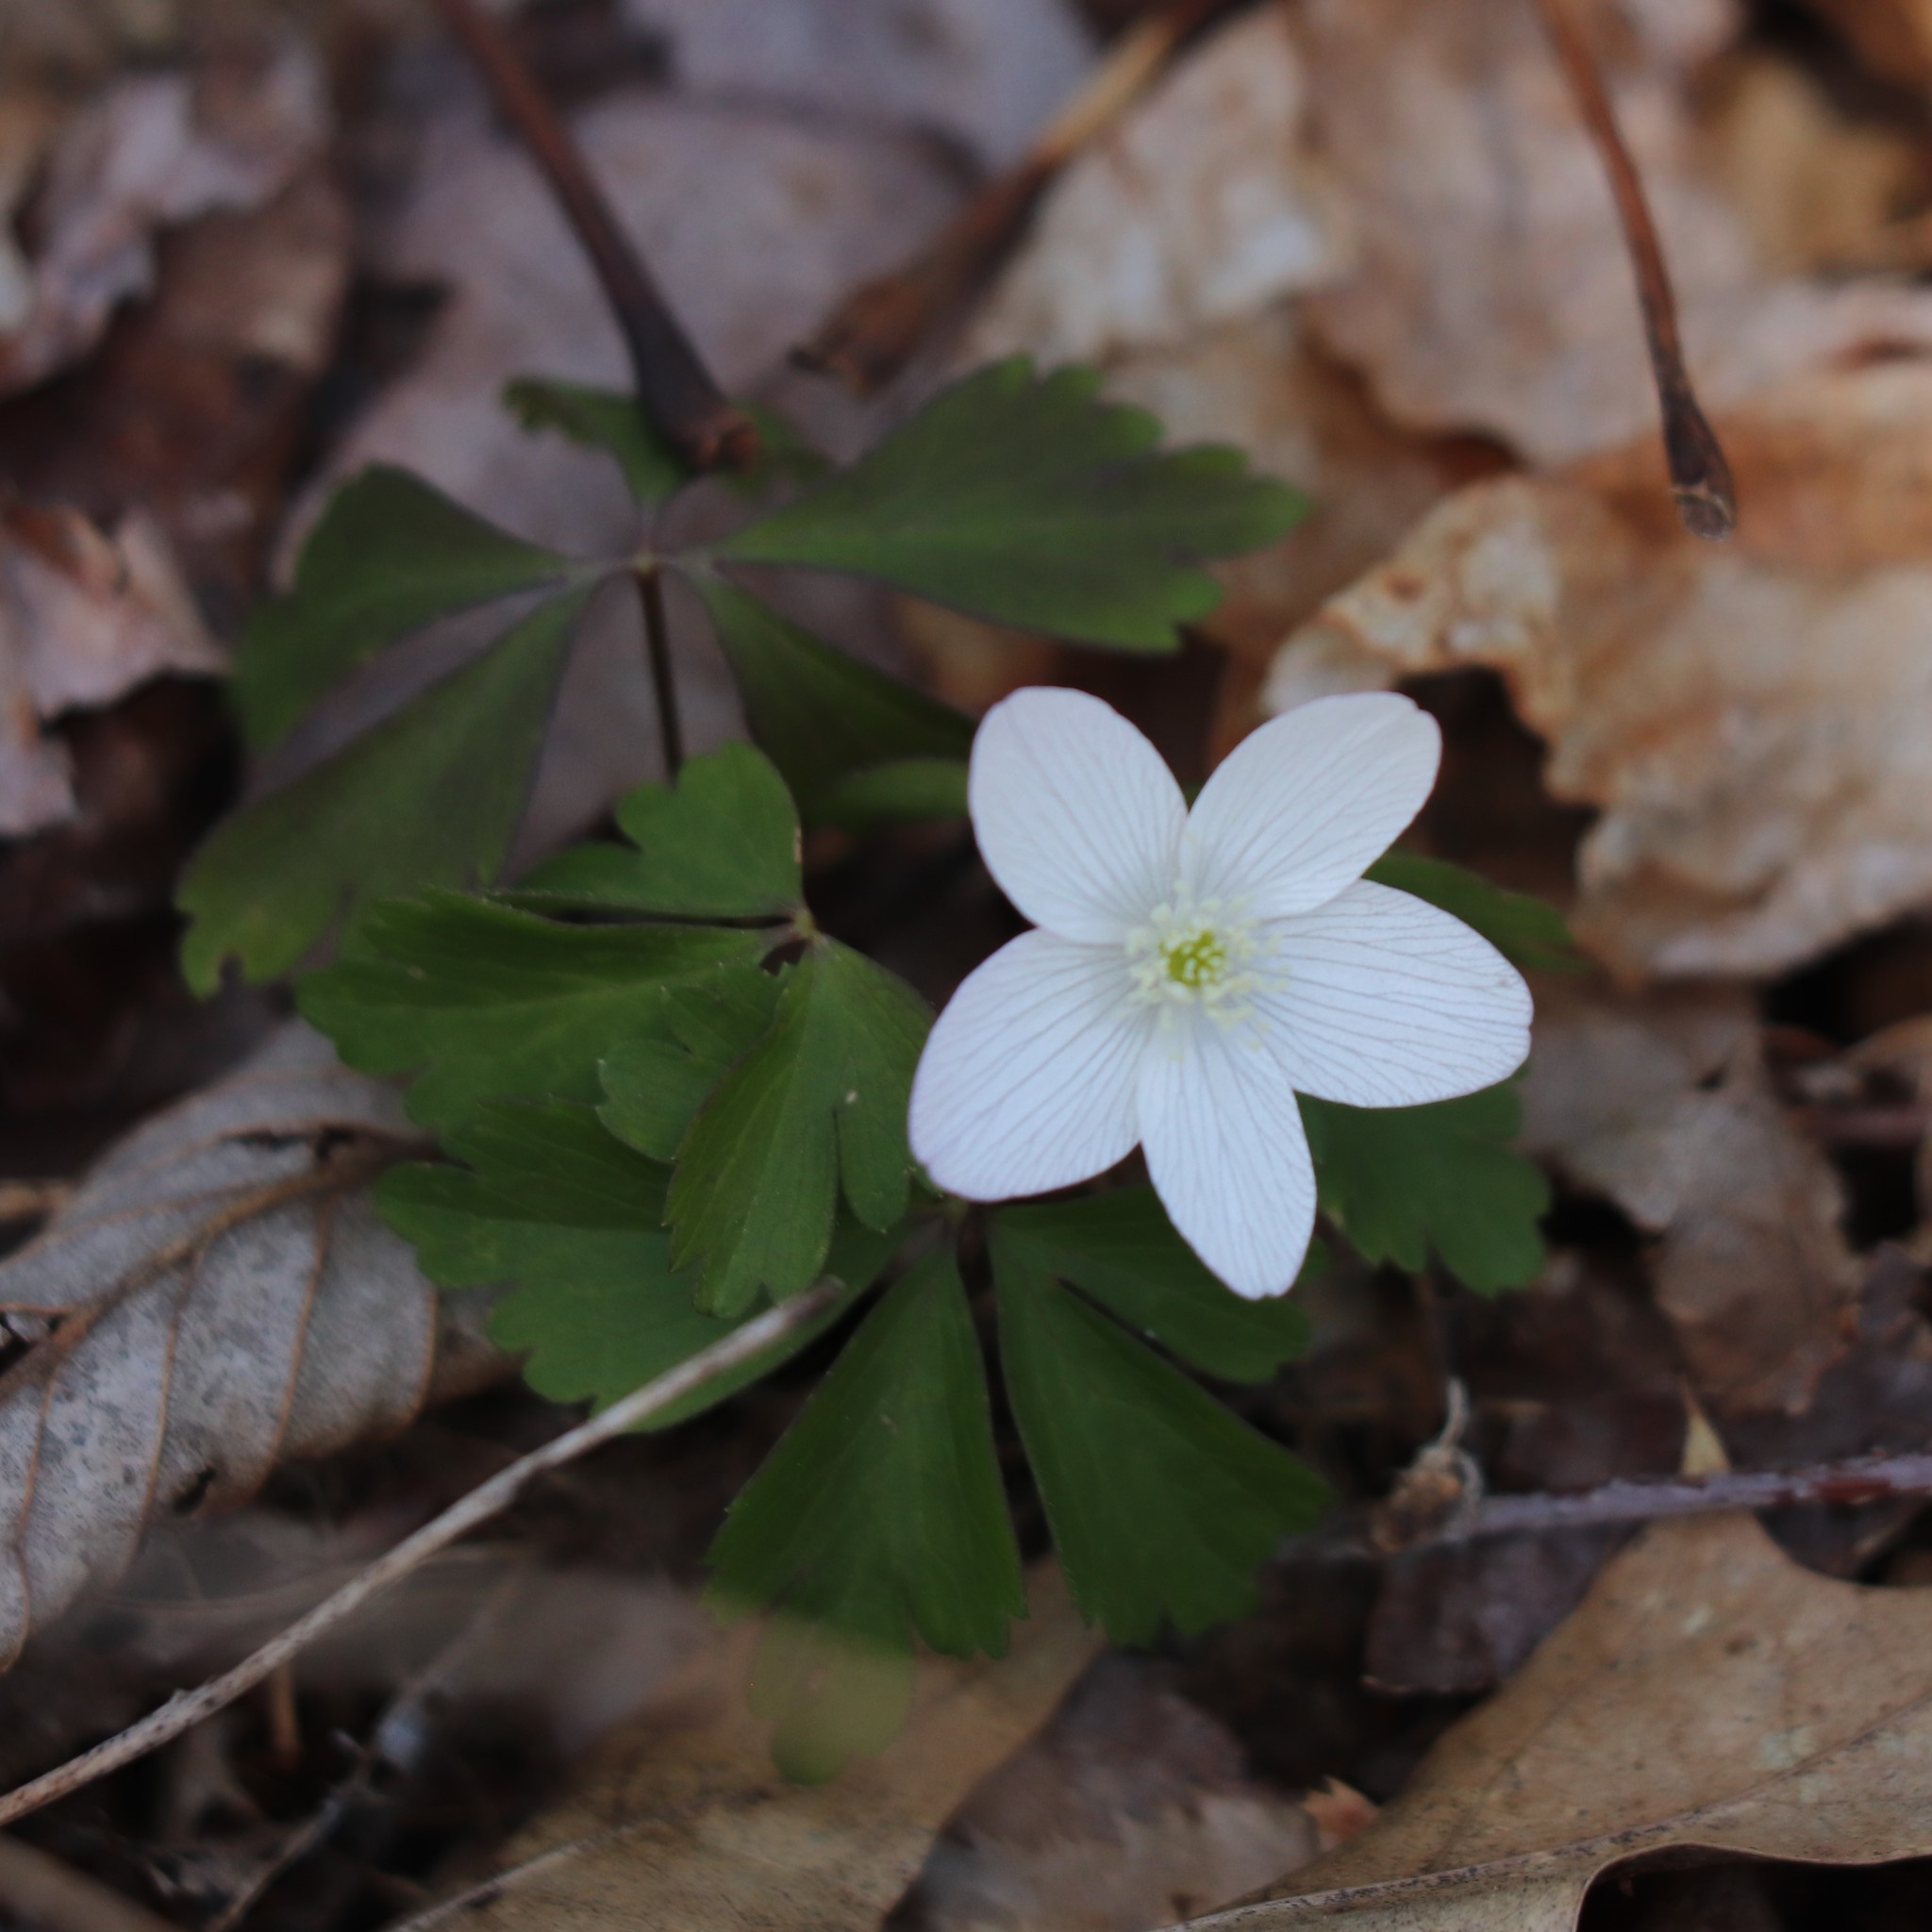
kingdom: Plantae
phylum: Tracheophyta
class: Magnoliopsida
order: Ranunculales
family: Ranunculaceae
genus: Anemone
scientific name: Anemone quinquefolia
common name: Wood anemone
